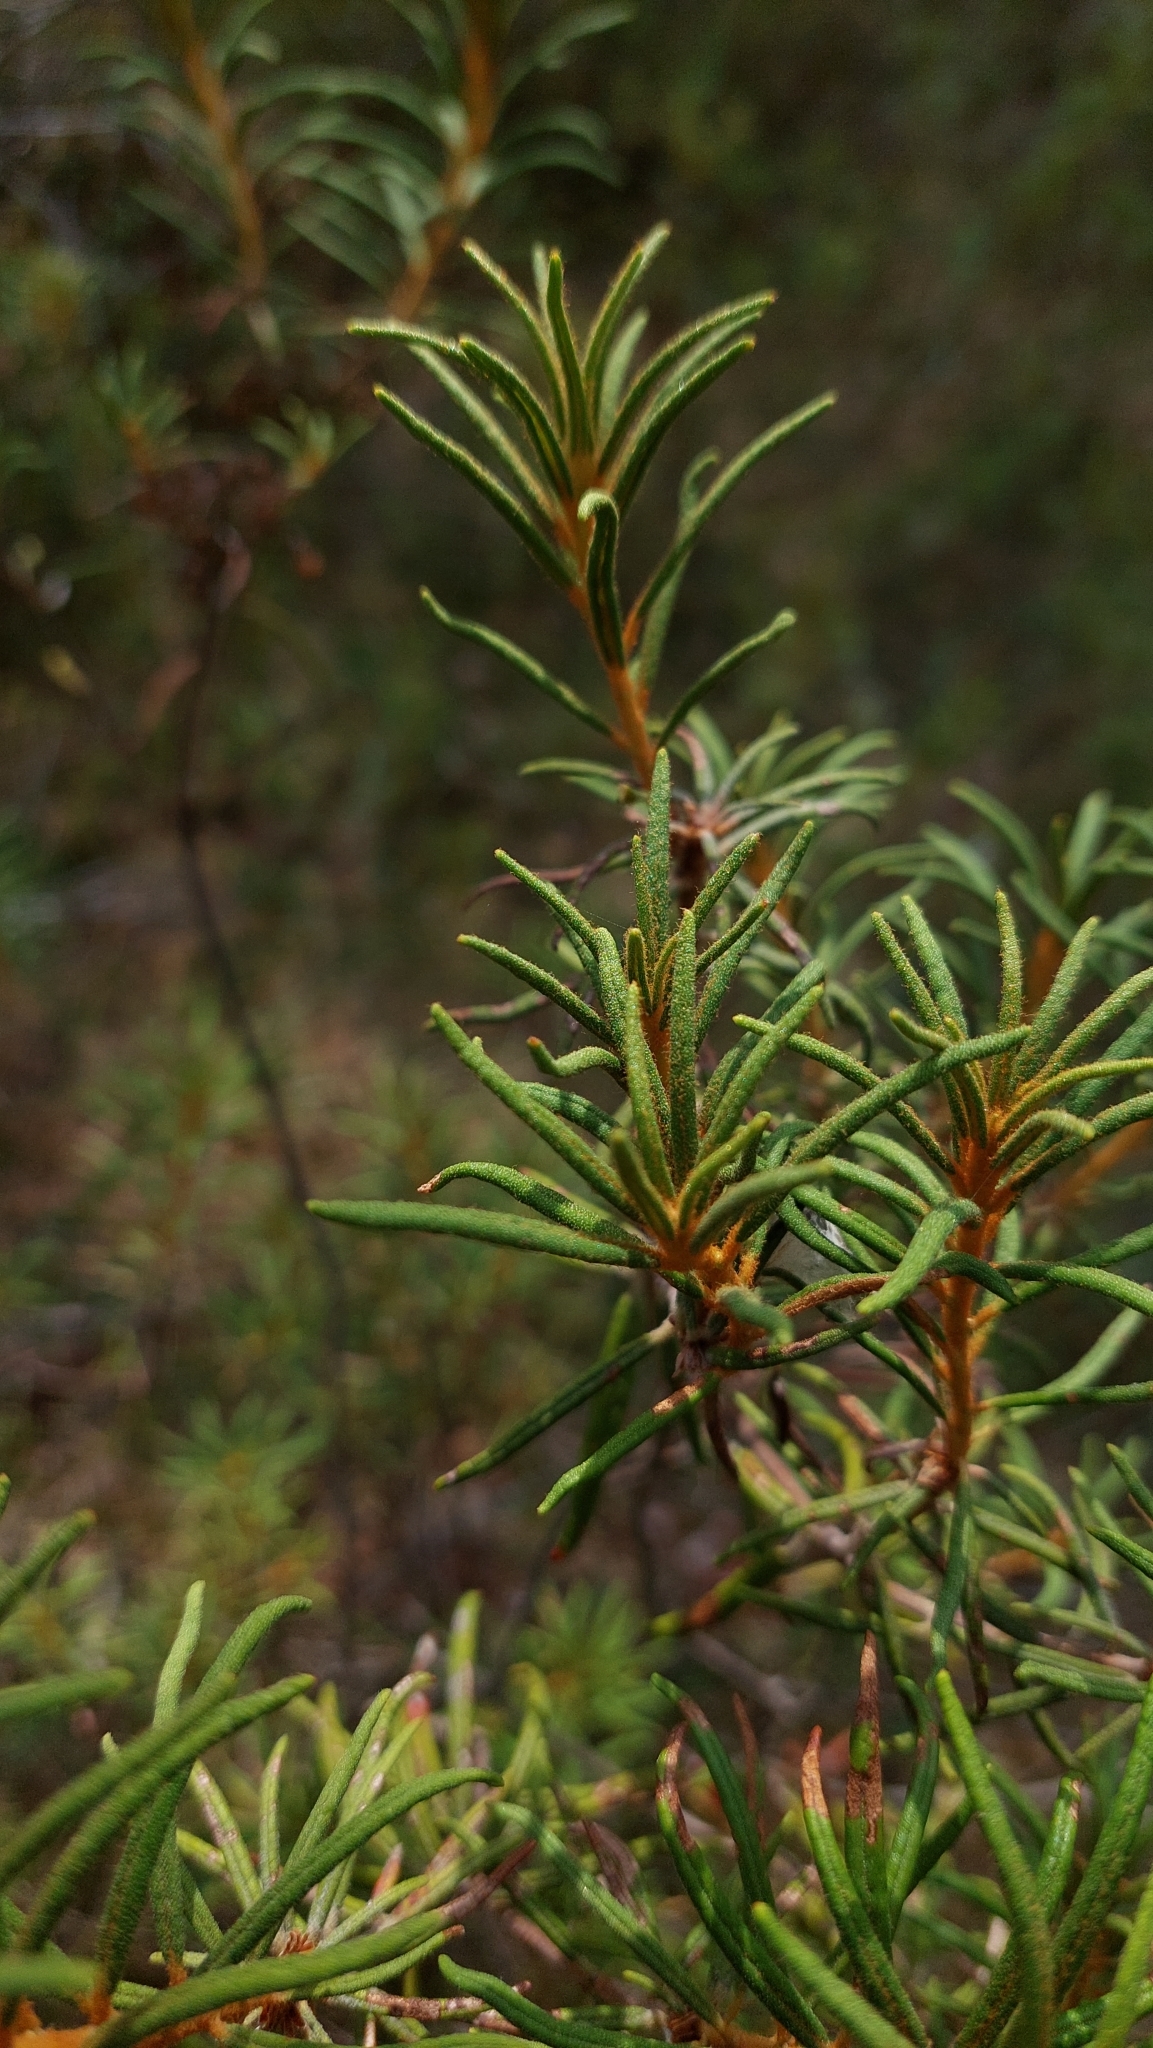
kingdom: Plantae
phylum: Tracheophyta
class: Magnoliopsida
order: Ericales
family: Ericaceae
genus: Rhododendron
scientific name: Rhododendron tomentosum
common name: Marsh labrador tea
